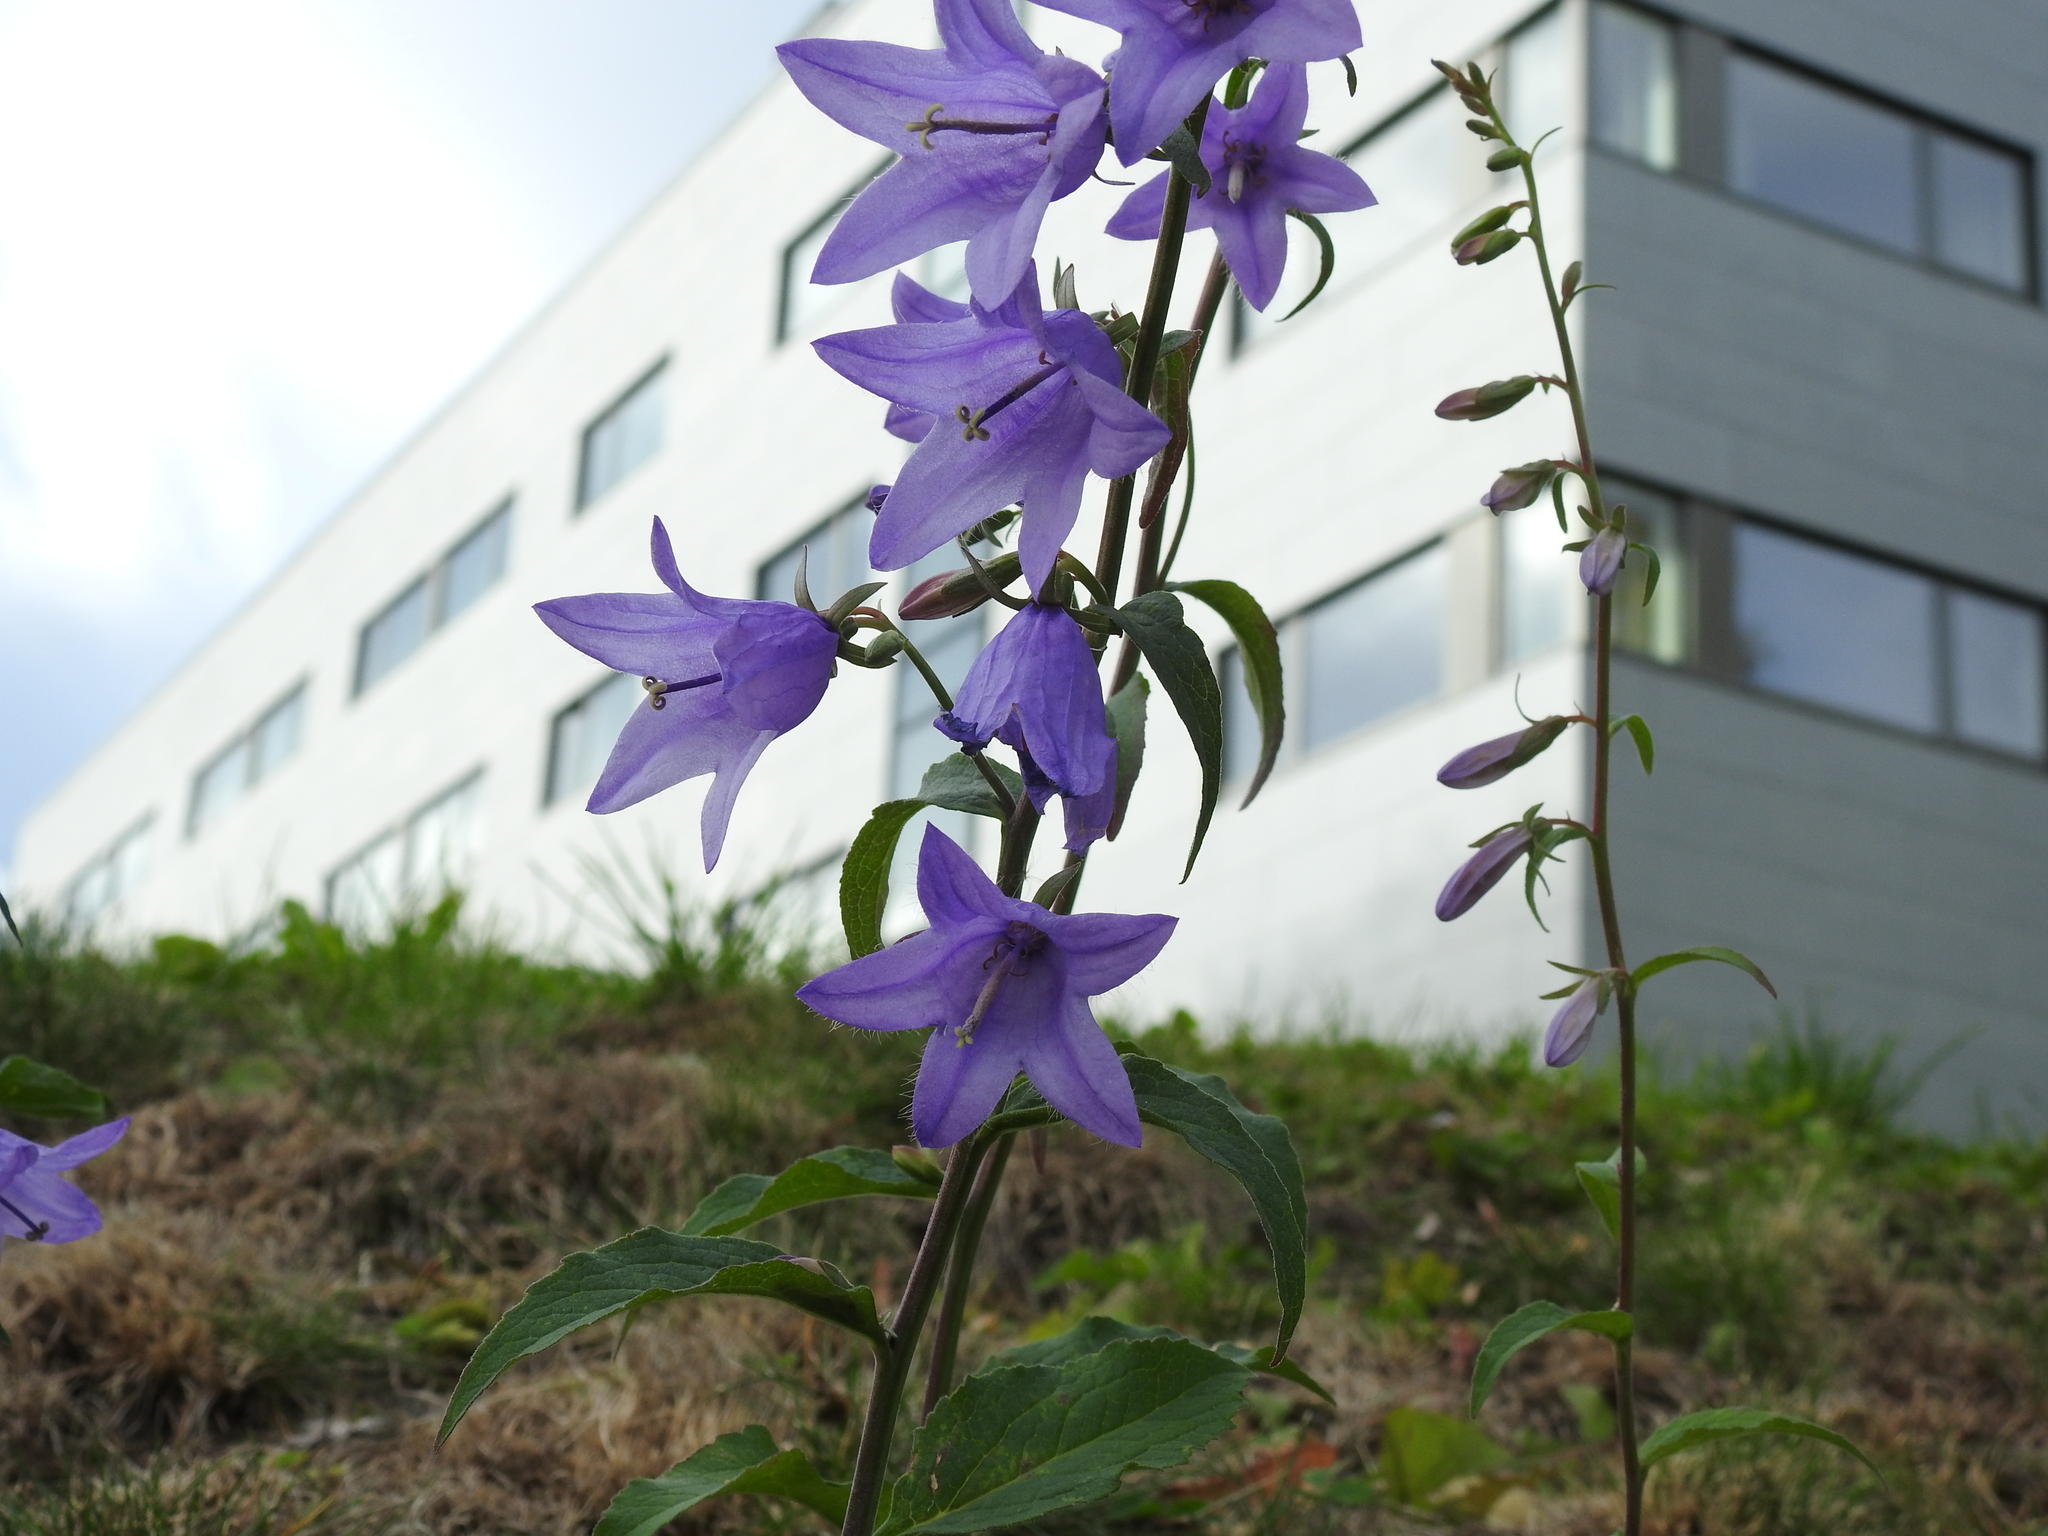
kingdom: Plantae
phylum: Tracheophyta
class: Magnoliopsida
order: Asterales
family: Campanulaceae
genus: Campanula
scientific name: Campanula rapunculoides
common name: Creeping bellflower
